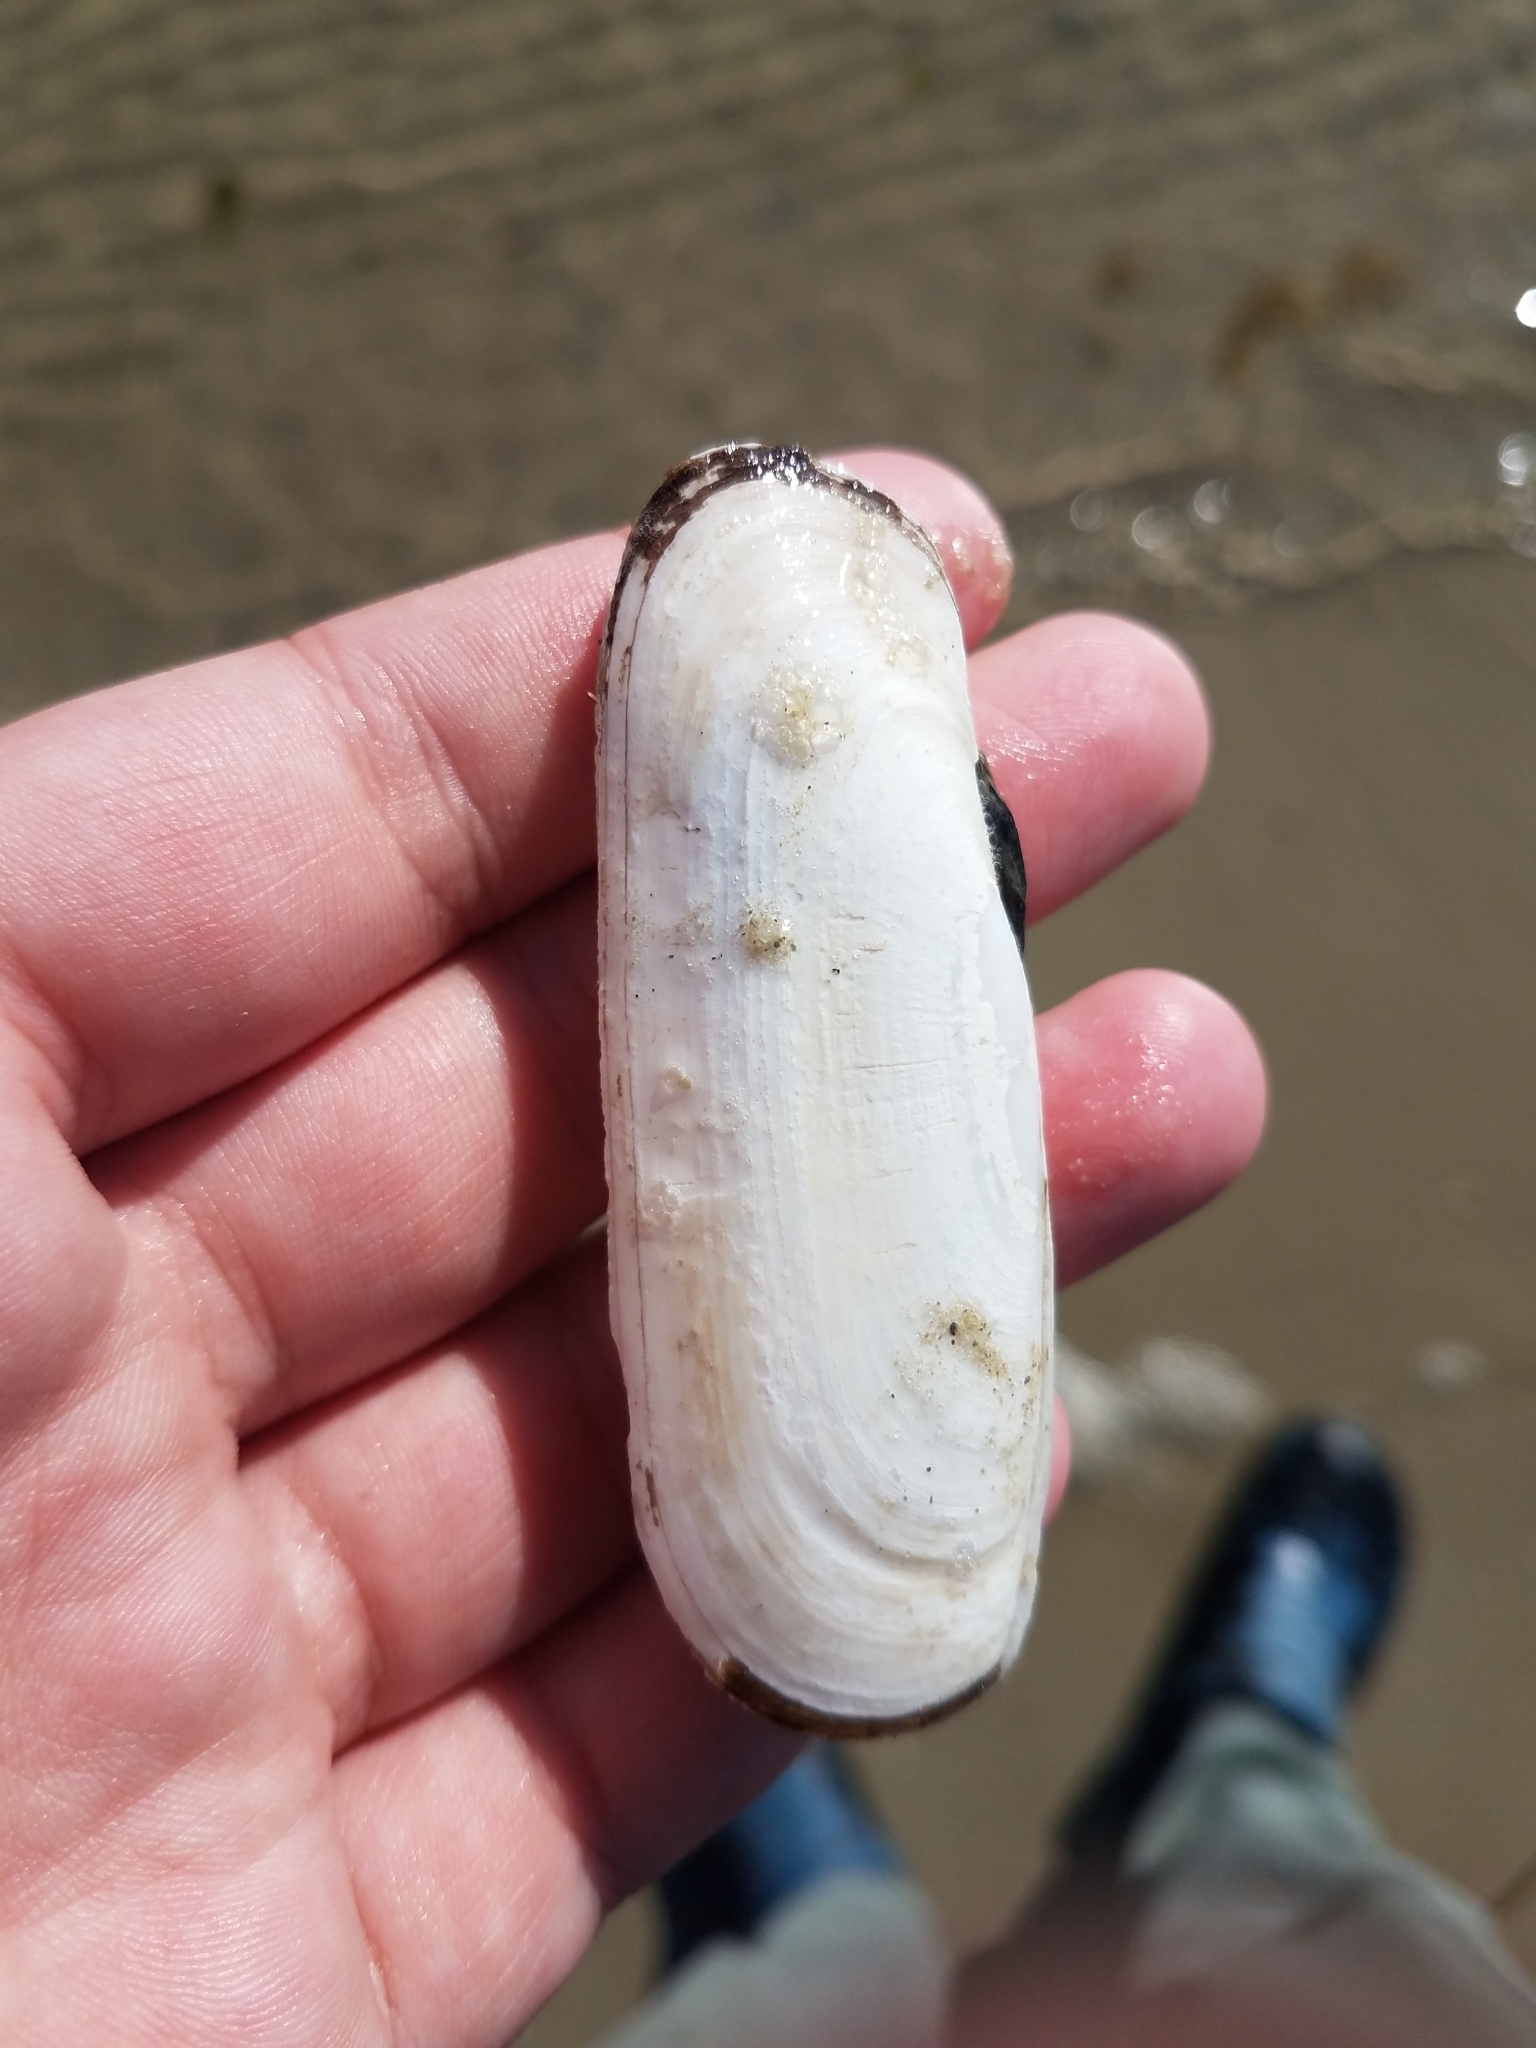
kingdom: Animalia
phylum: Mollusca
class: Bivalvia
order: Cardiida
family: Solecurtidae
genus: Tagelus
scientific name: Tagelus plebeius
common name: Stout tagelus
